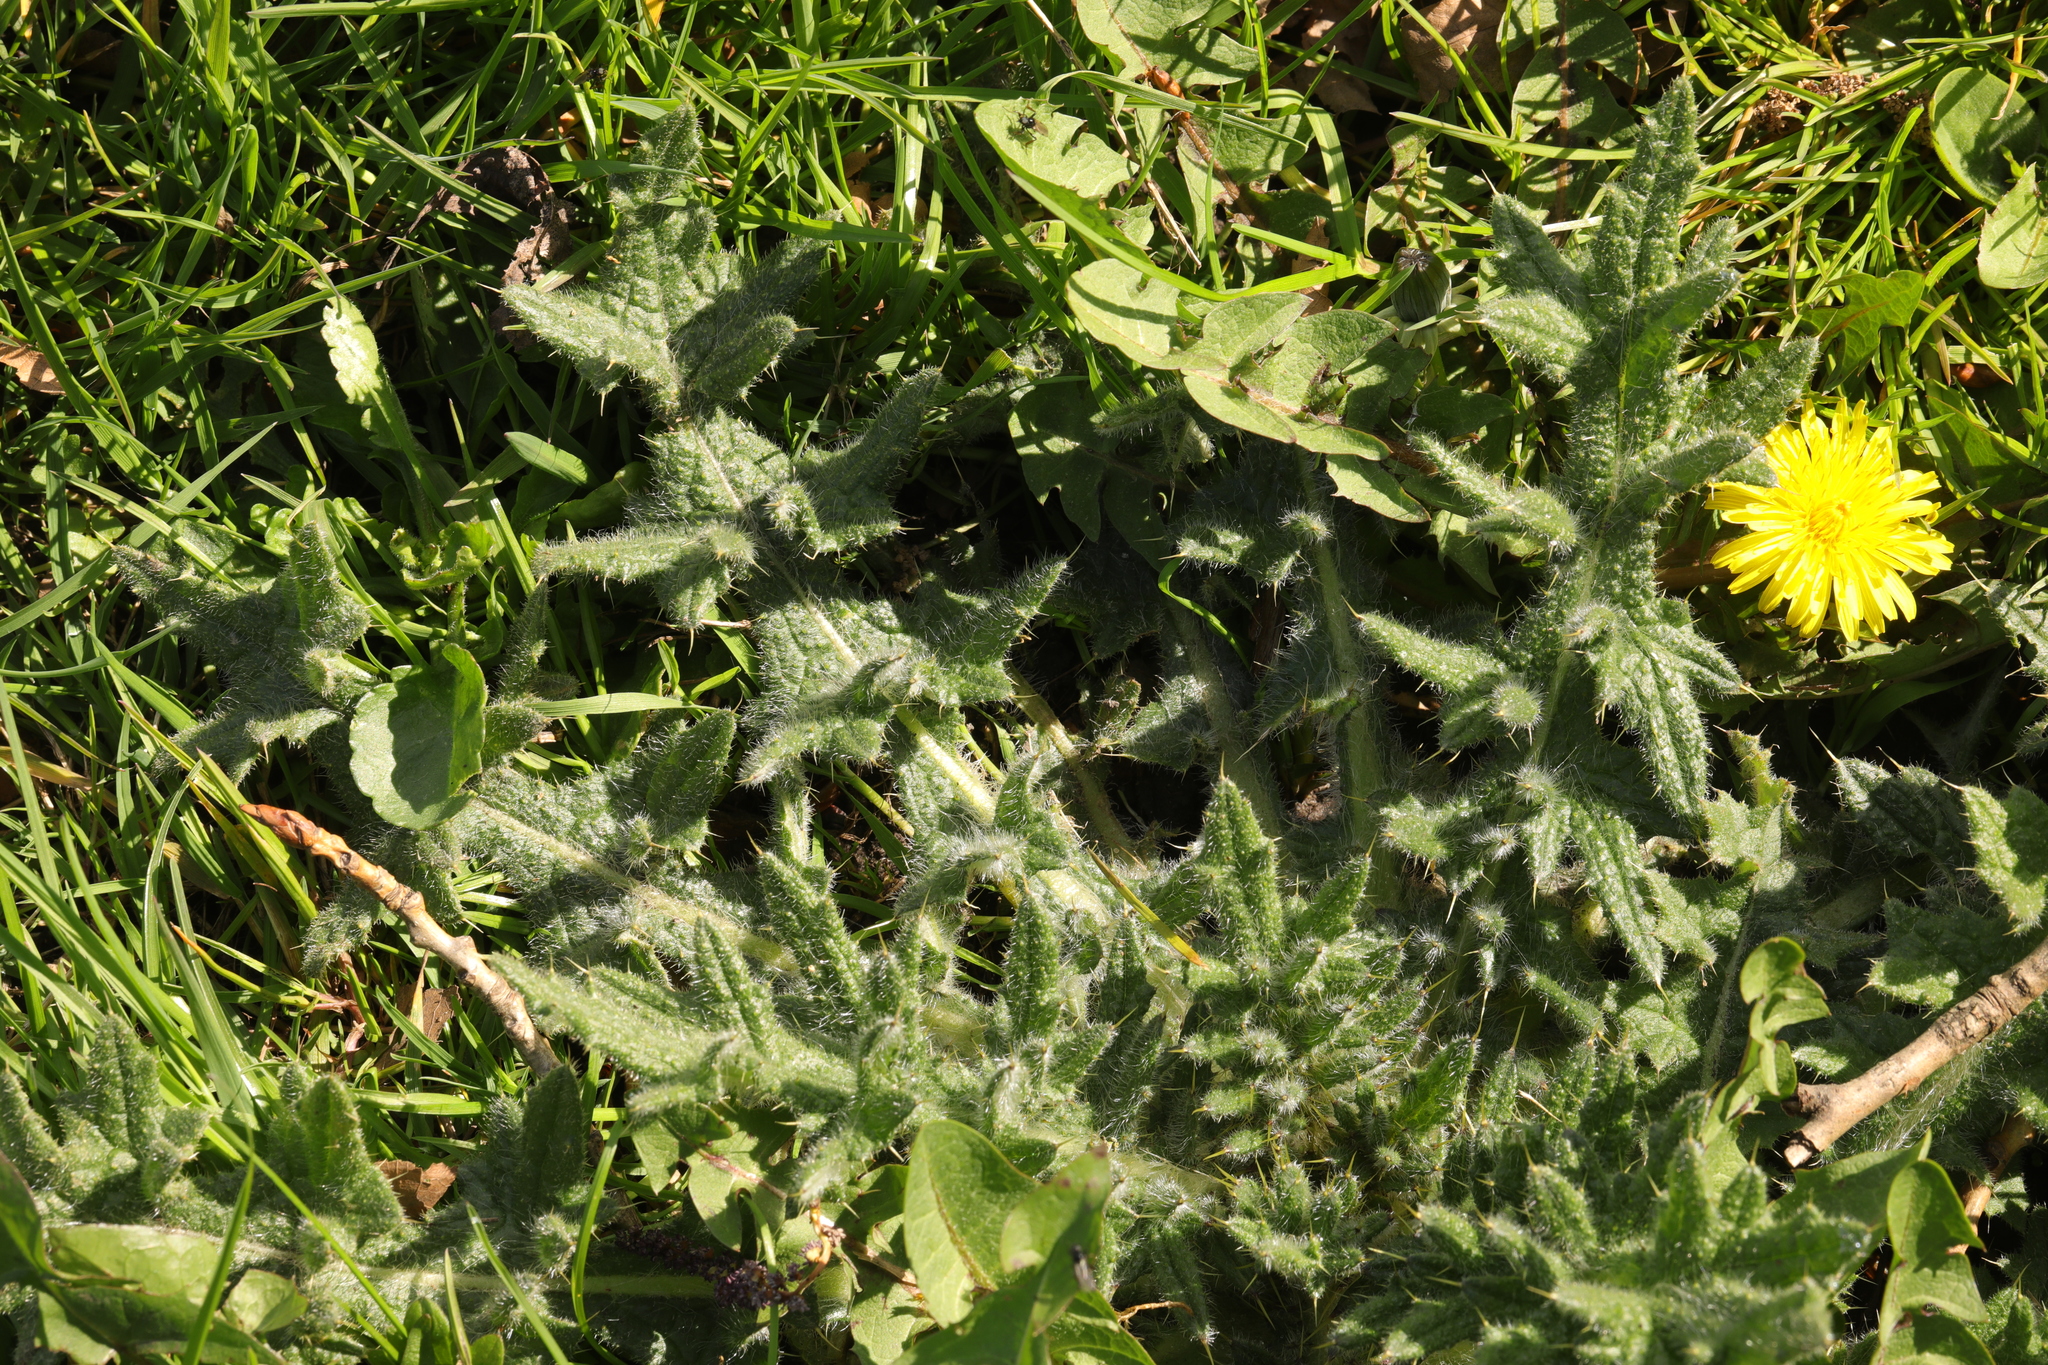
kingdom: Plantae
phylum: Tracheophyta
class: Magnoliopsida
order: Asterales
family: Asteraceae
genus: Cirsium
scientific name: Cirsium vulgare
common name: Bull thistle
